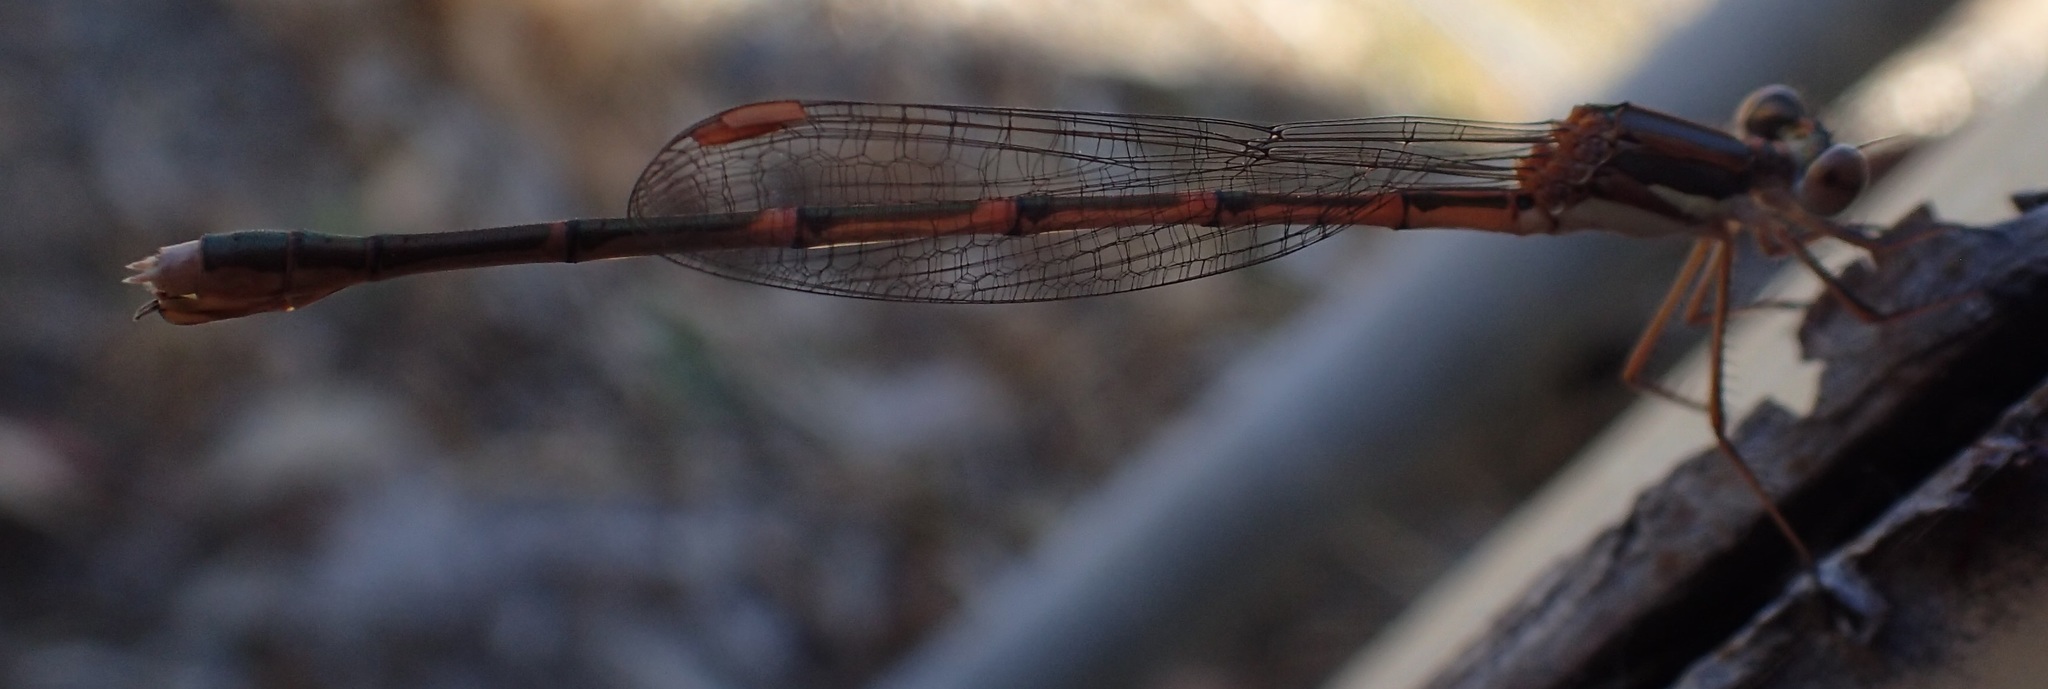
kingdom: Animalia
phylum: Arthropoda
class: Insecta
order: Odonata
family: Lestidae
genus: Austrolestes
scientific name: Austrolestes analis
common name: Slender ringtail
